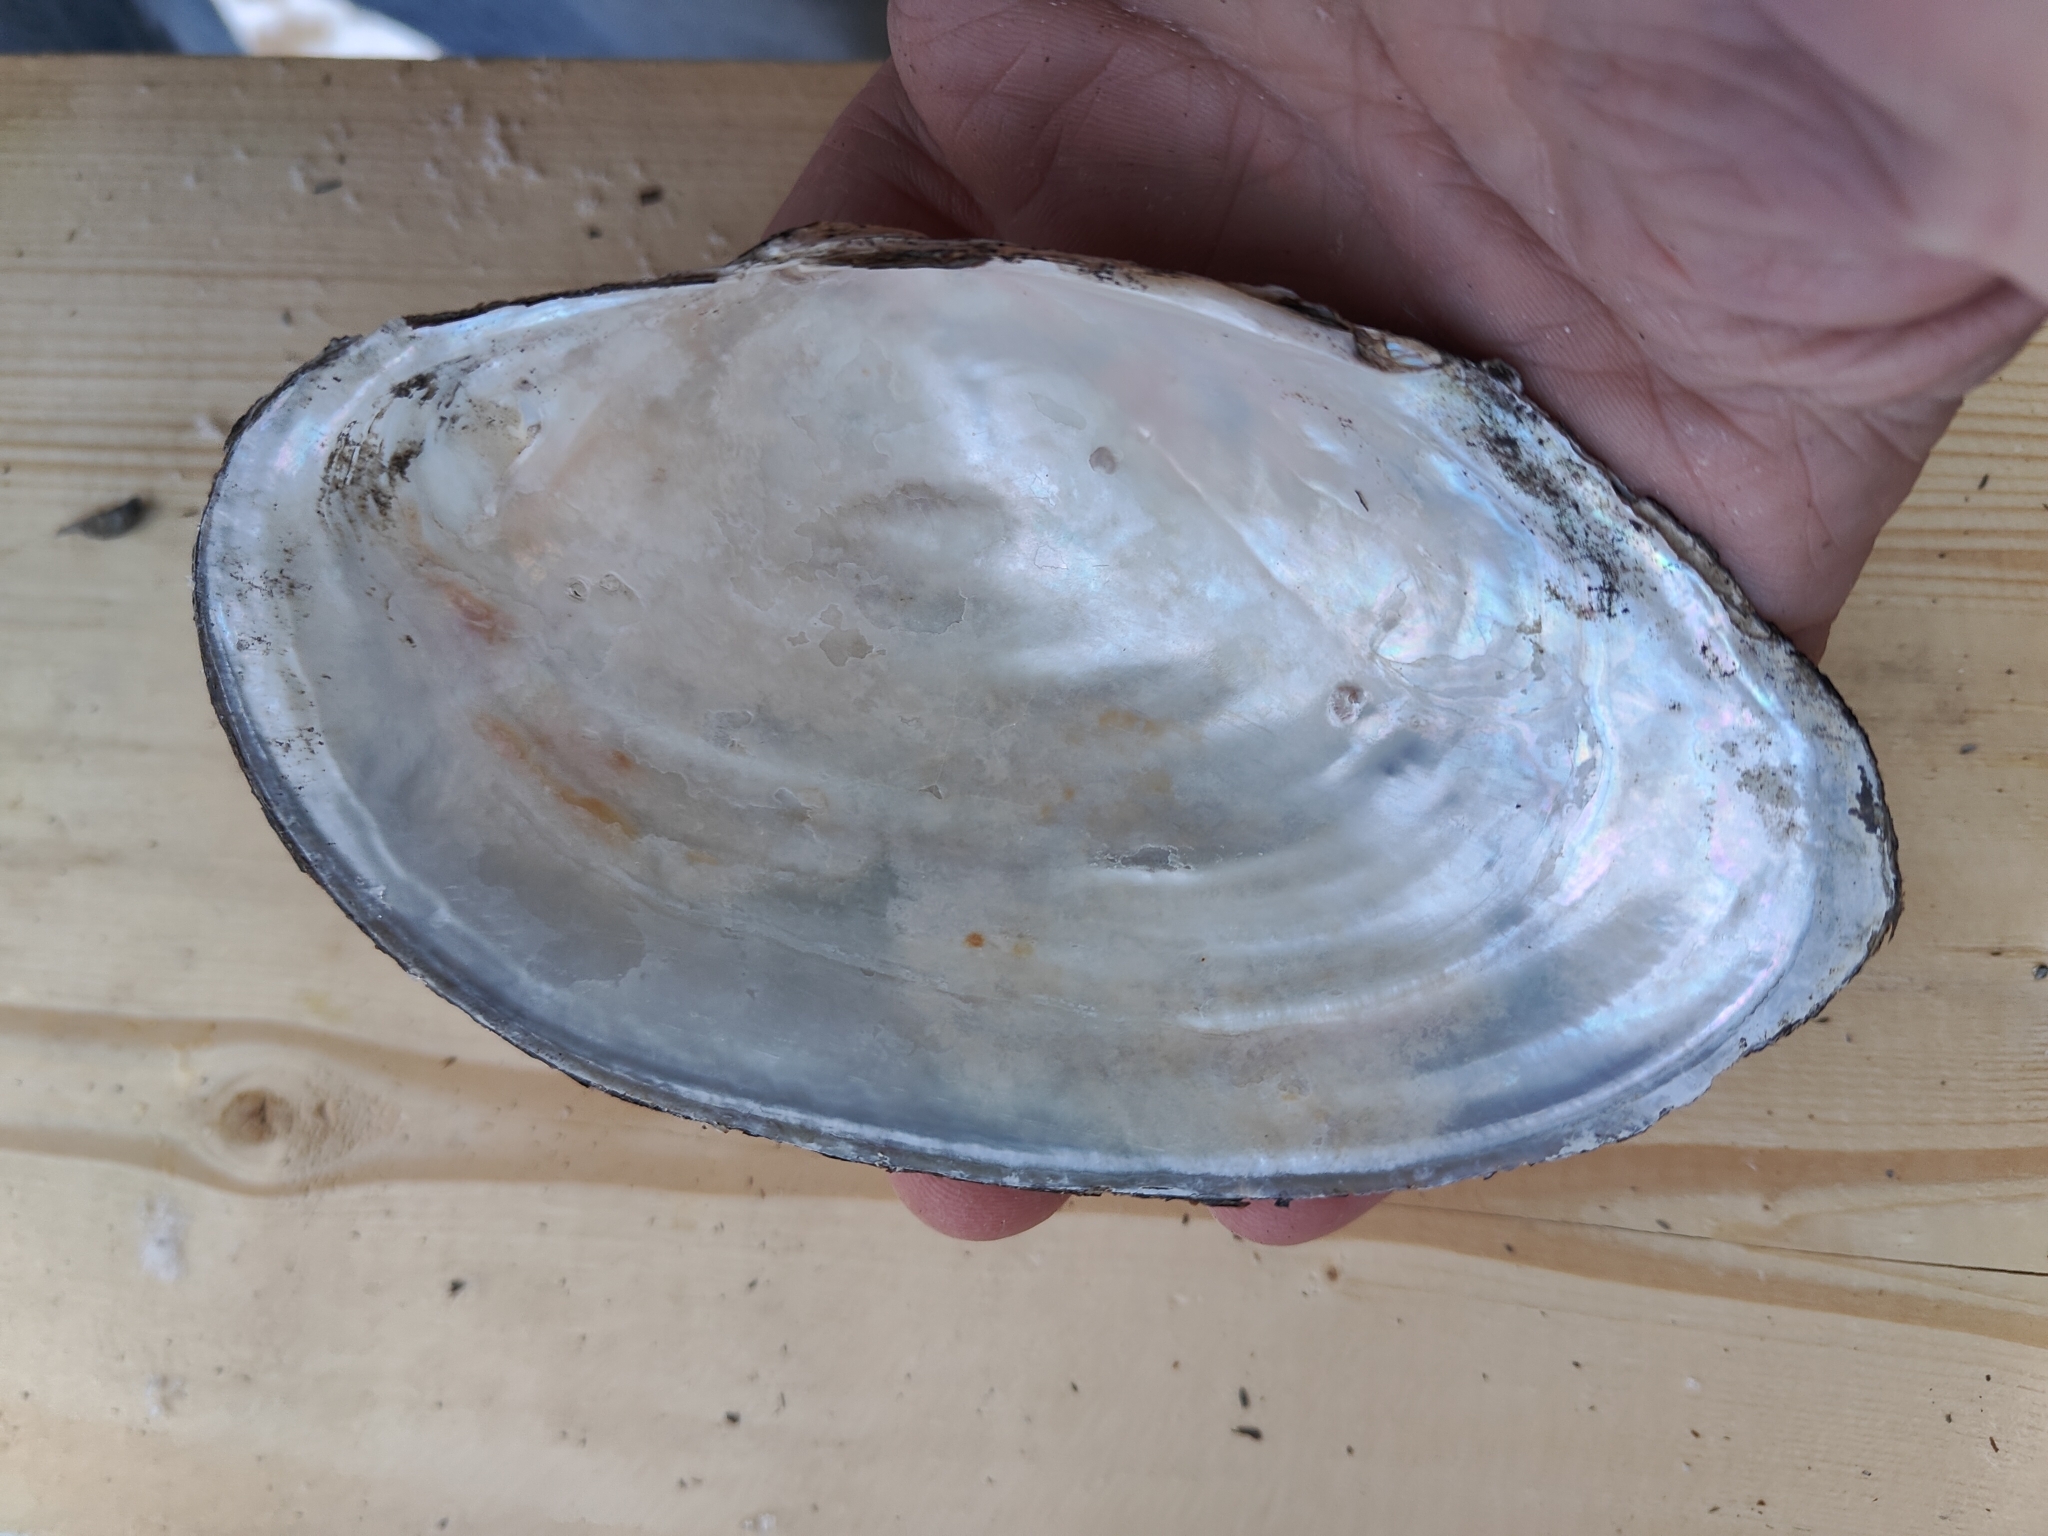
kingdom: Animalia
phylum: Mollusca
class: Bivalvia
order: Unionida
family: Unionidae
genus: Pyganodon
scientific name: Pyganodon grandis
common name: Giant floater
